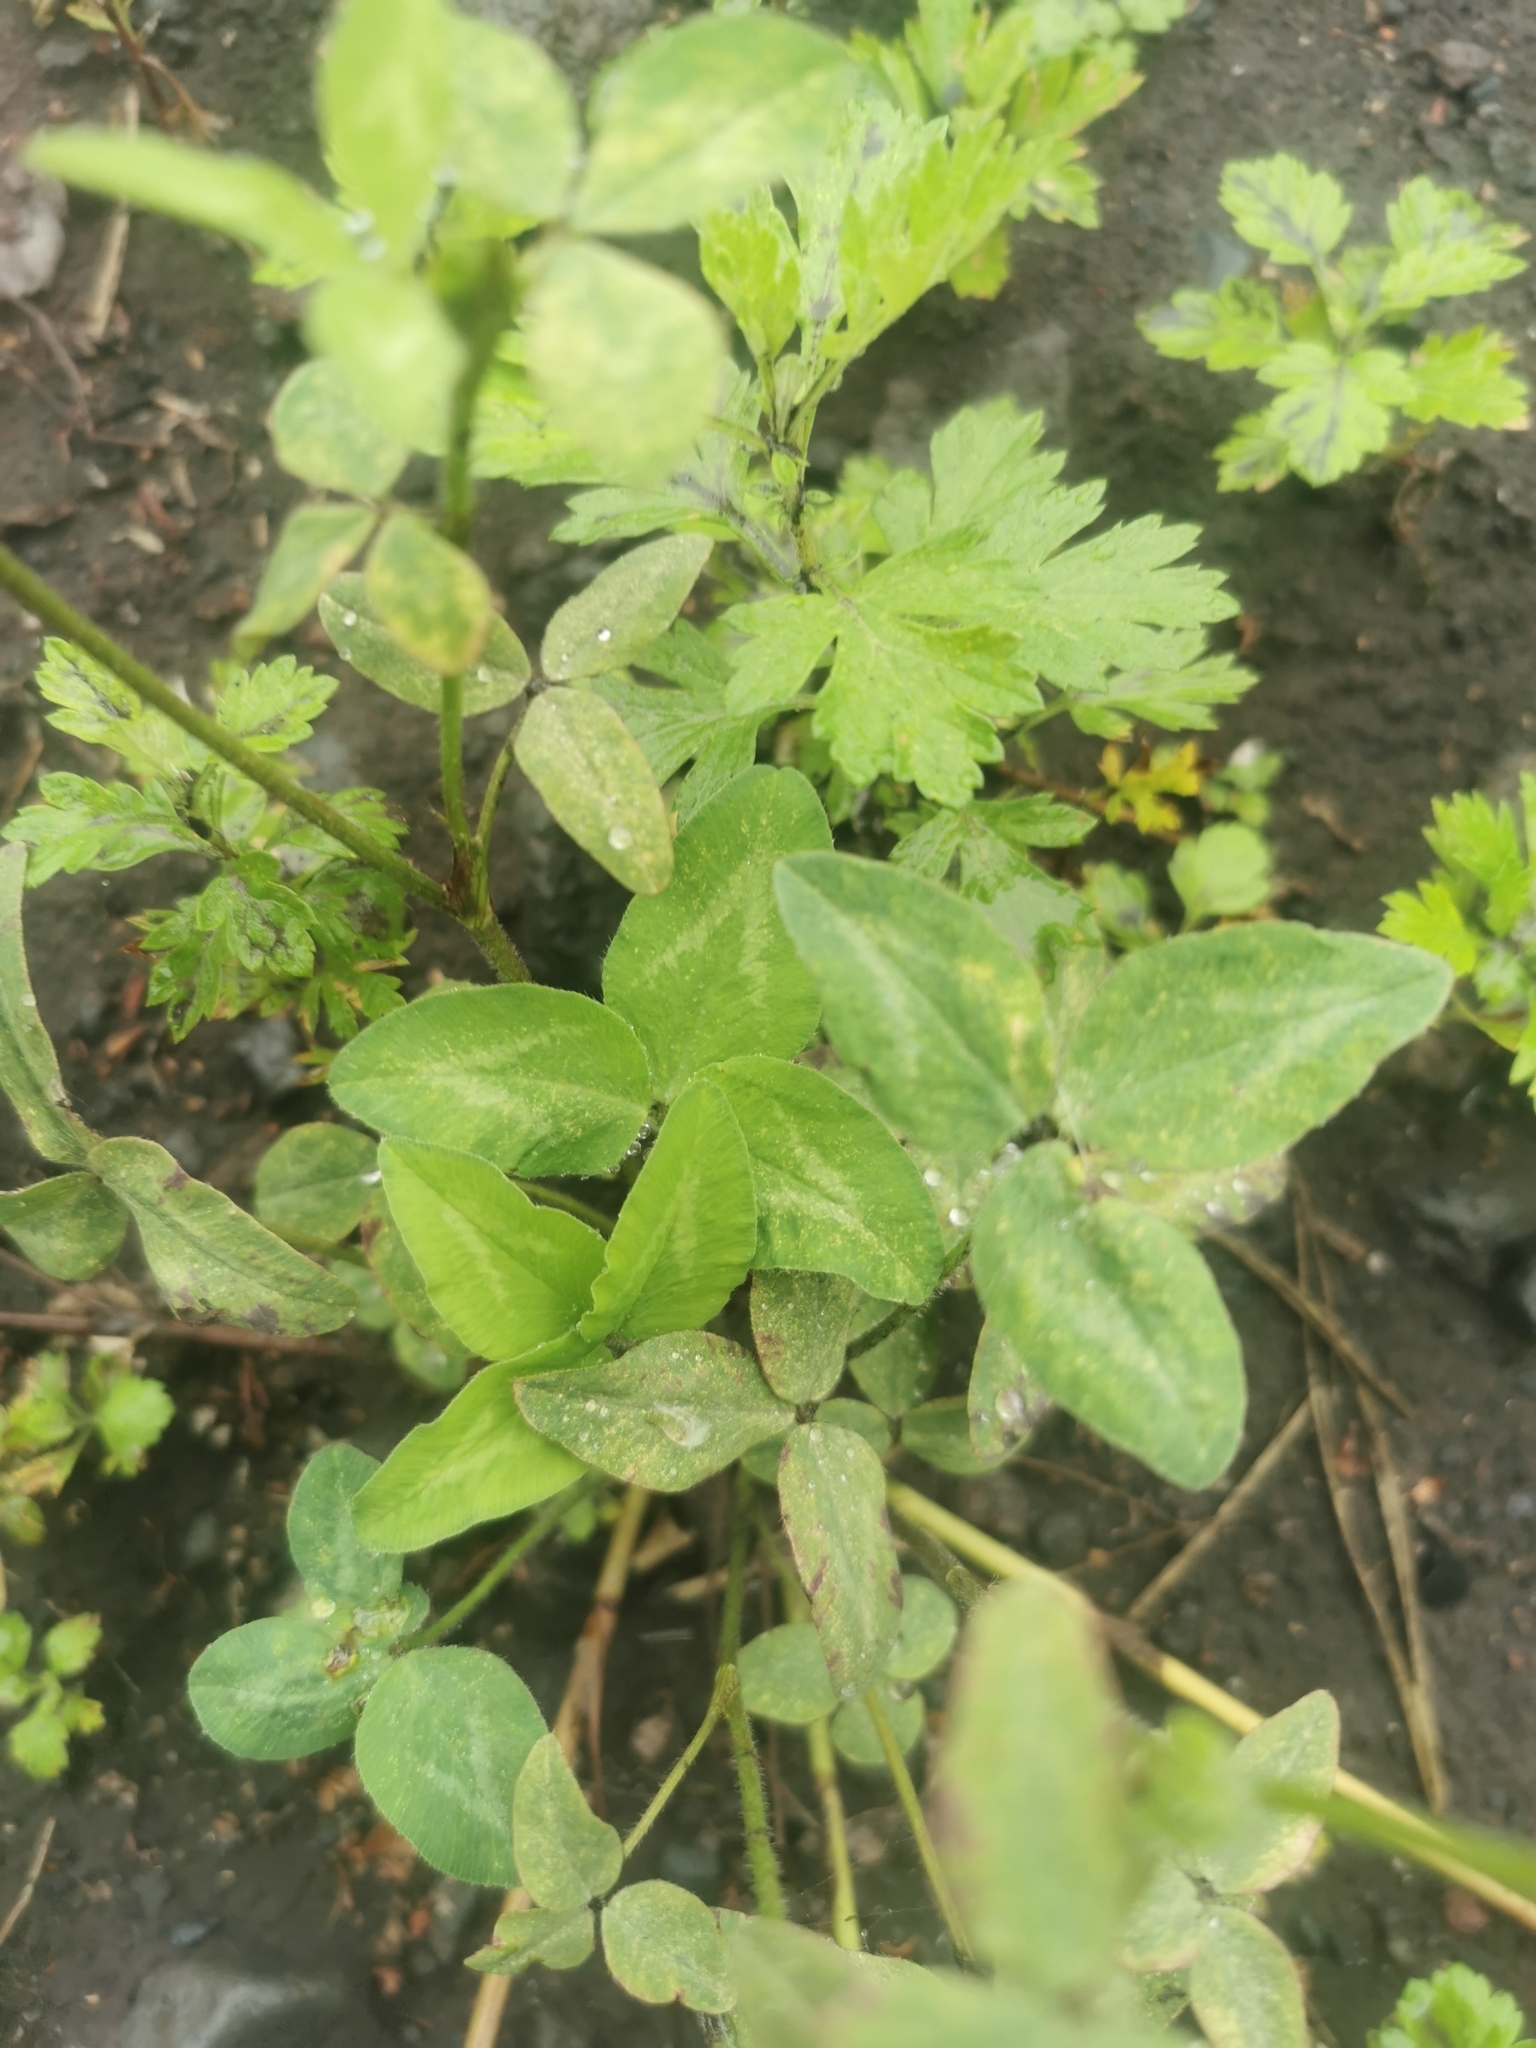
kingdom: Plantae
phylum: Tracheophyta
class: Magnoliopsida
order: Fabales
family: Fabaceae
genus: Trifolium
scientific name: Trifolium pratense
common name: Red clover
